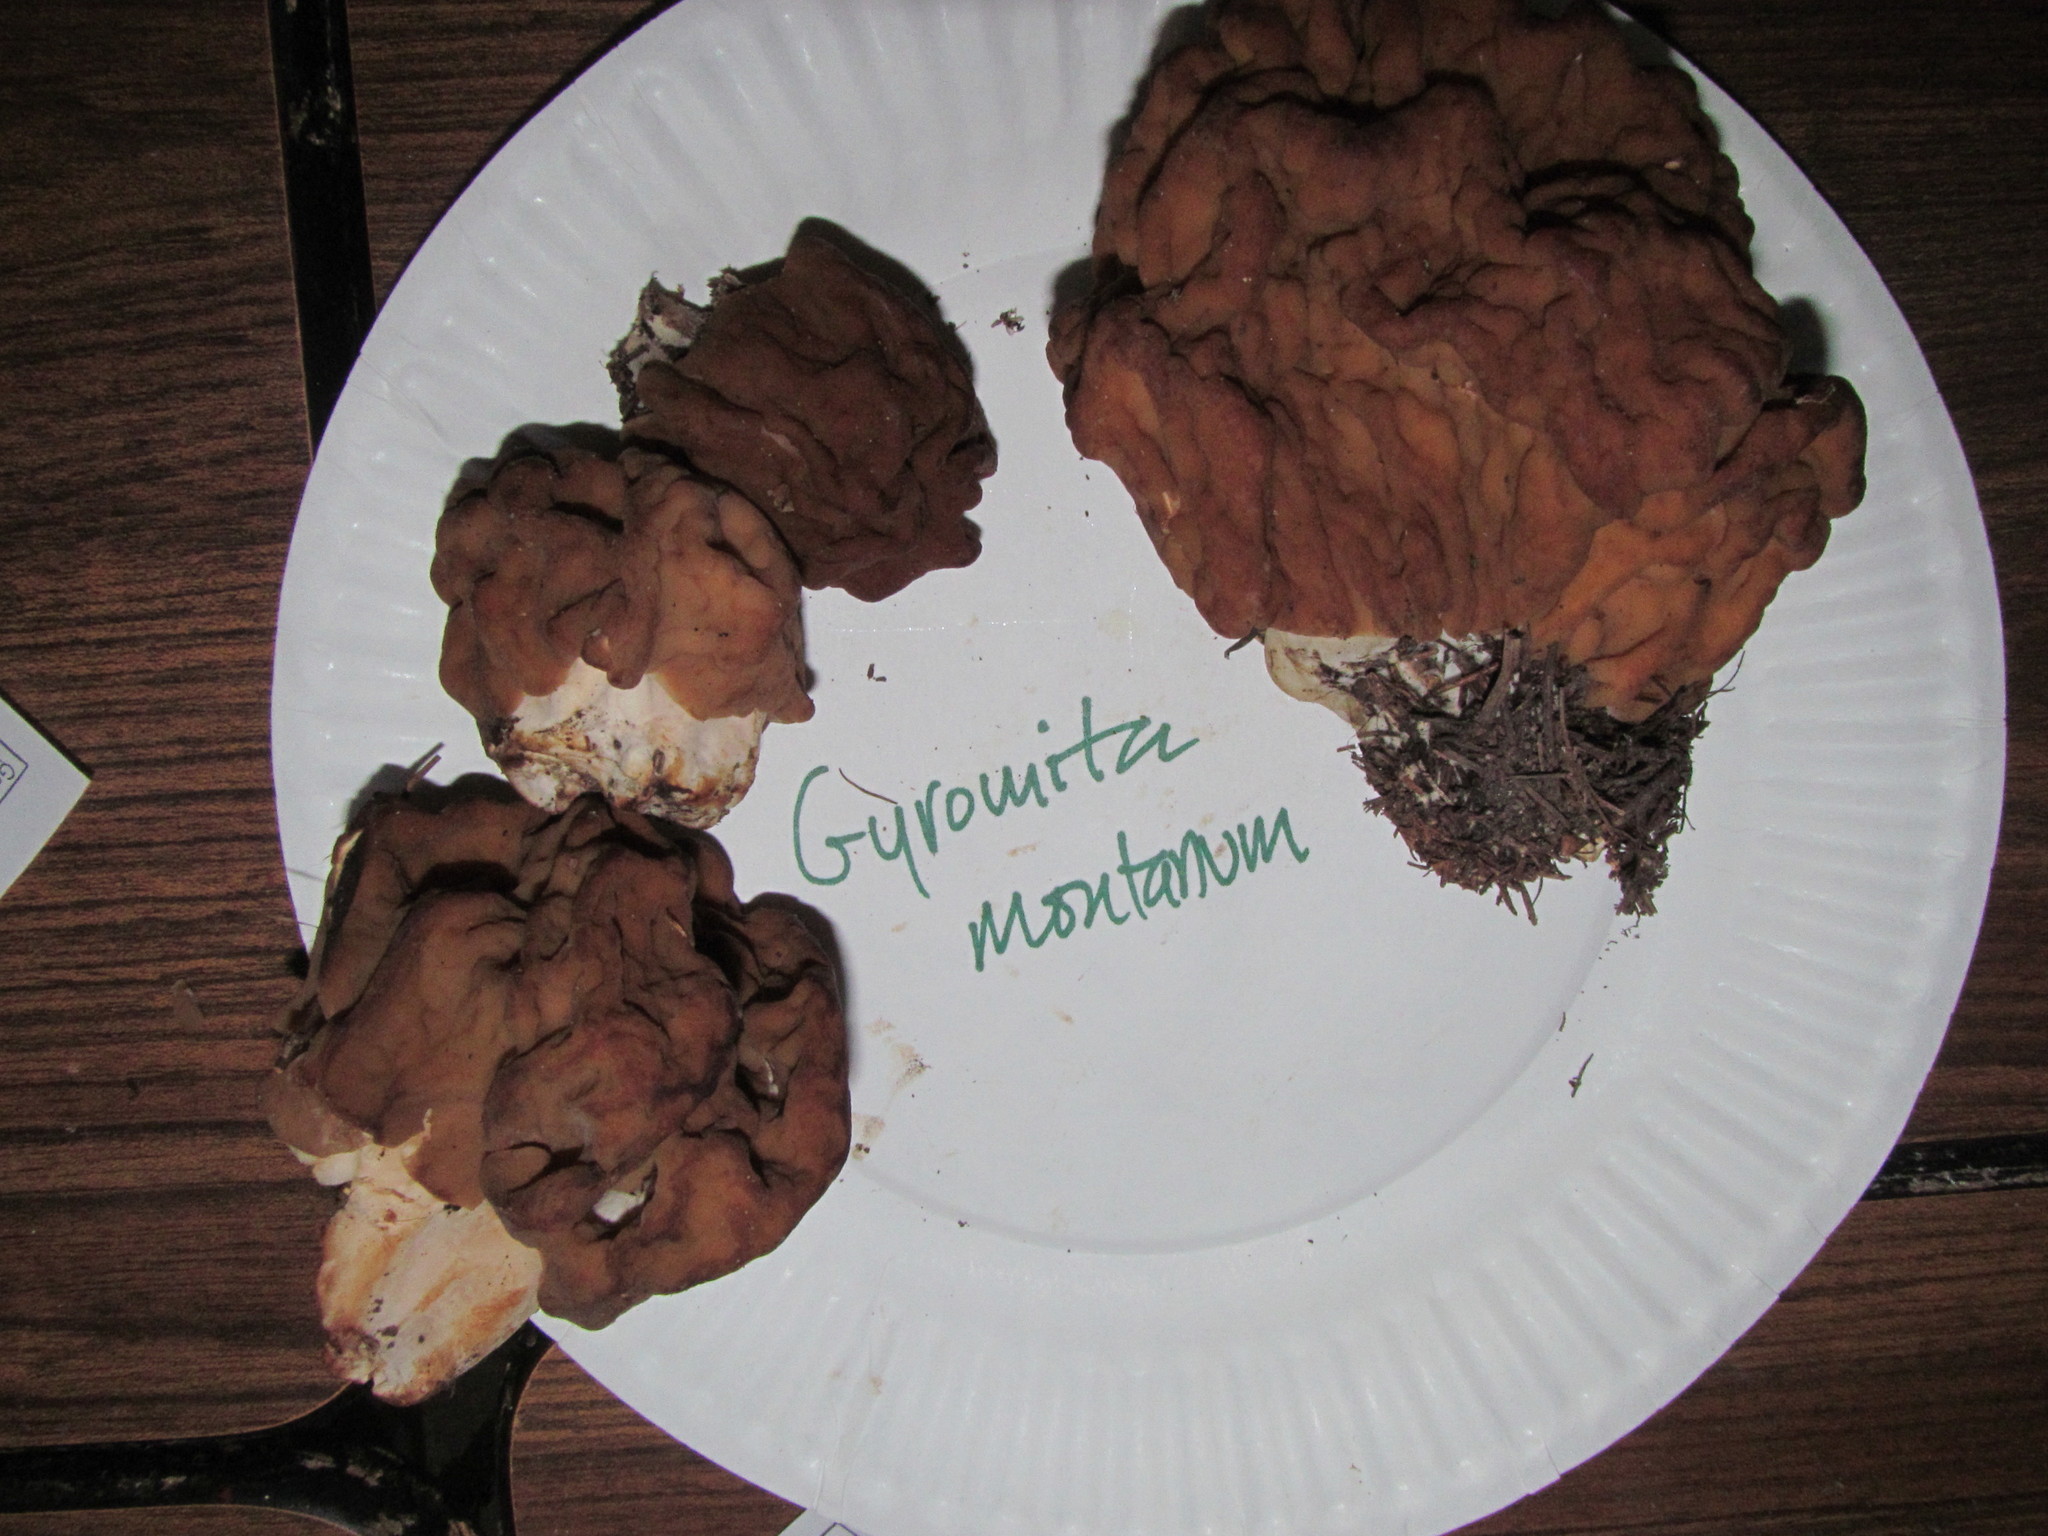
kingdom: Fungi
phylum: Ascomycota
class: Pezizomycetes
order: Pezizales
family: Discinaceae
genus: Discina
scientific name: Discina montana
